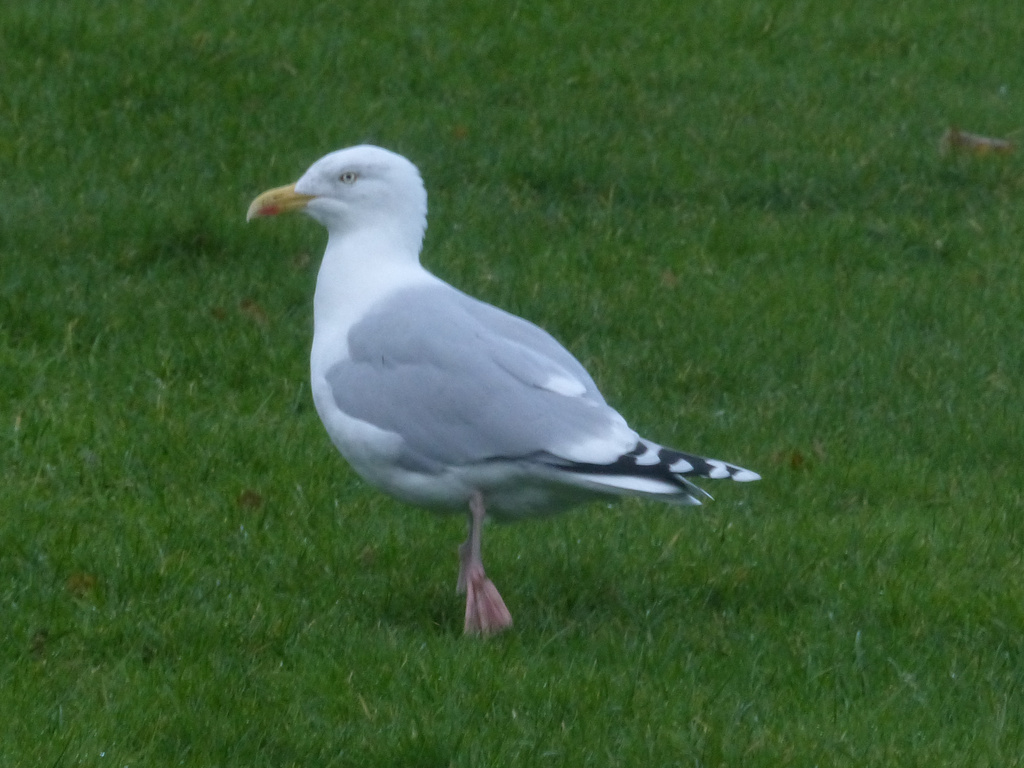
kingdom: Animalia
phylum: Chordata
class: Aves
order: Charadriiformes
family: Laridae
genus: Larus
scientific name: Larus argentatus
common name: Herring gull
